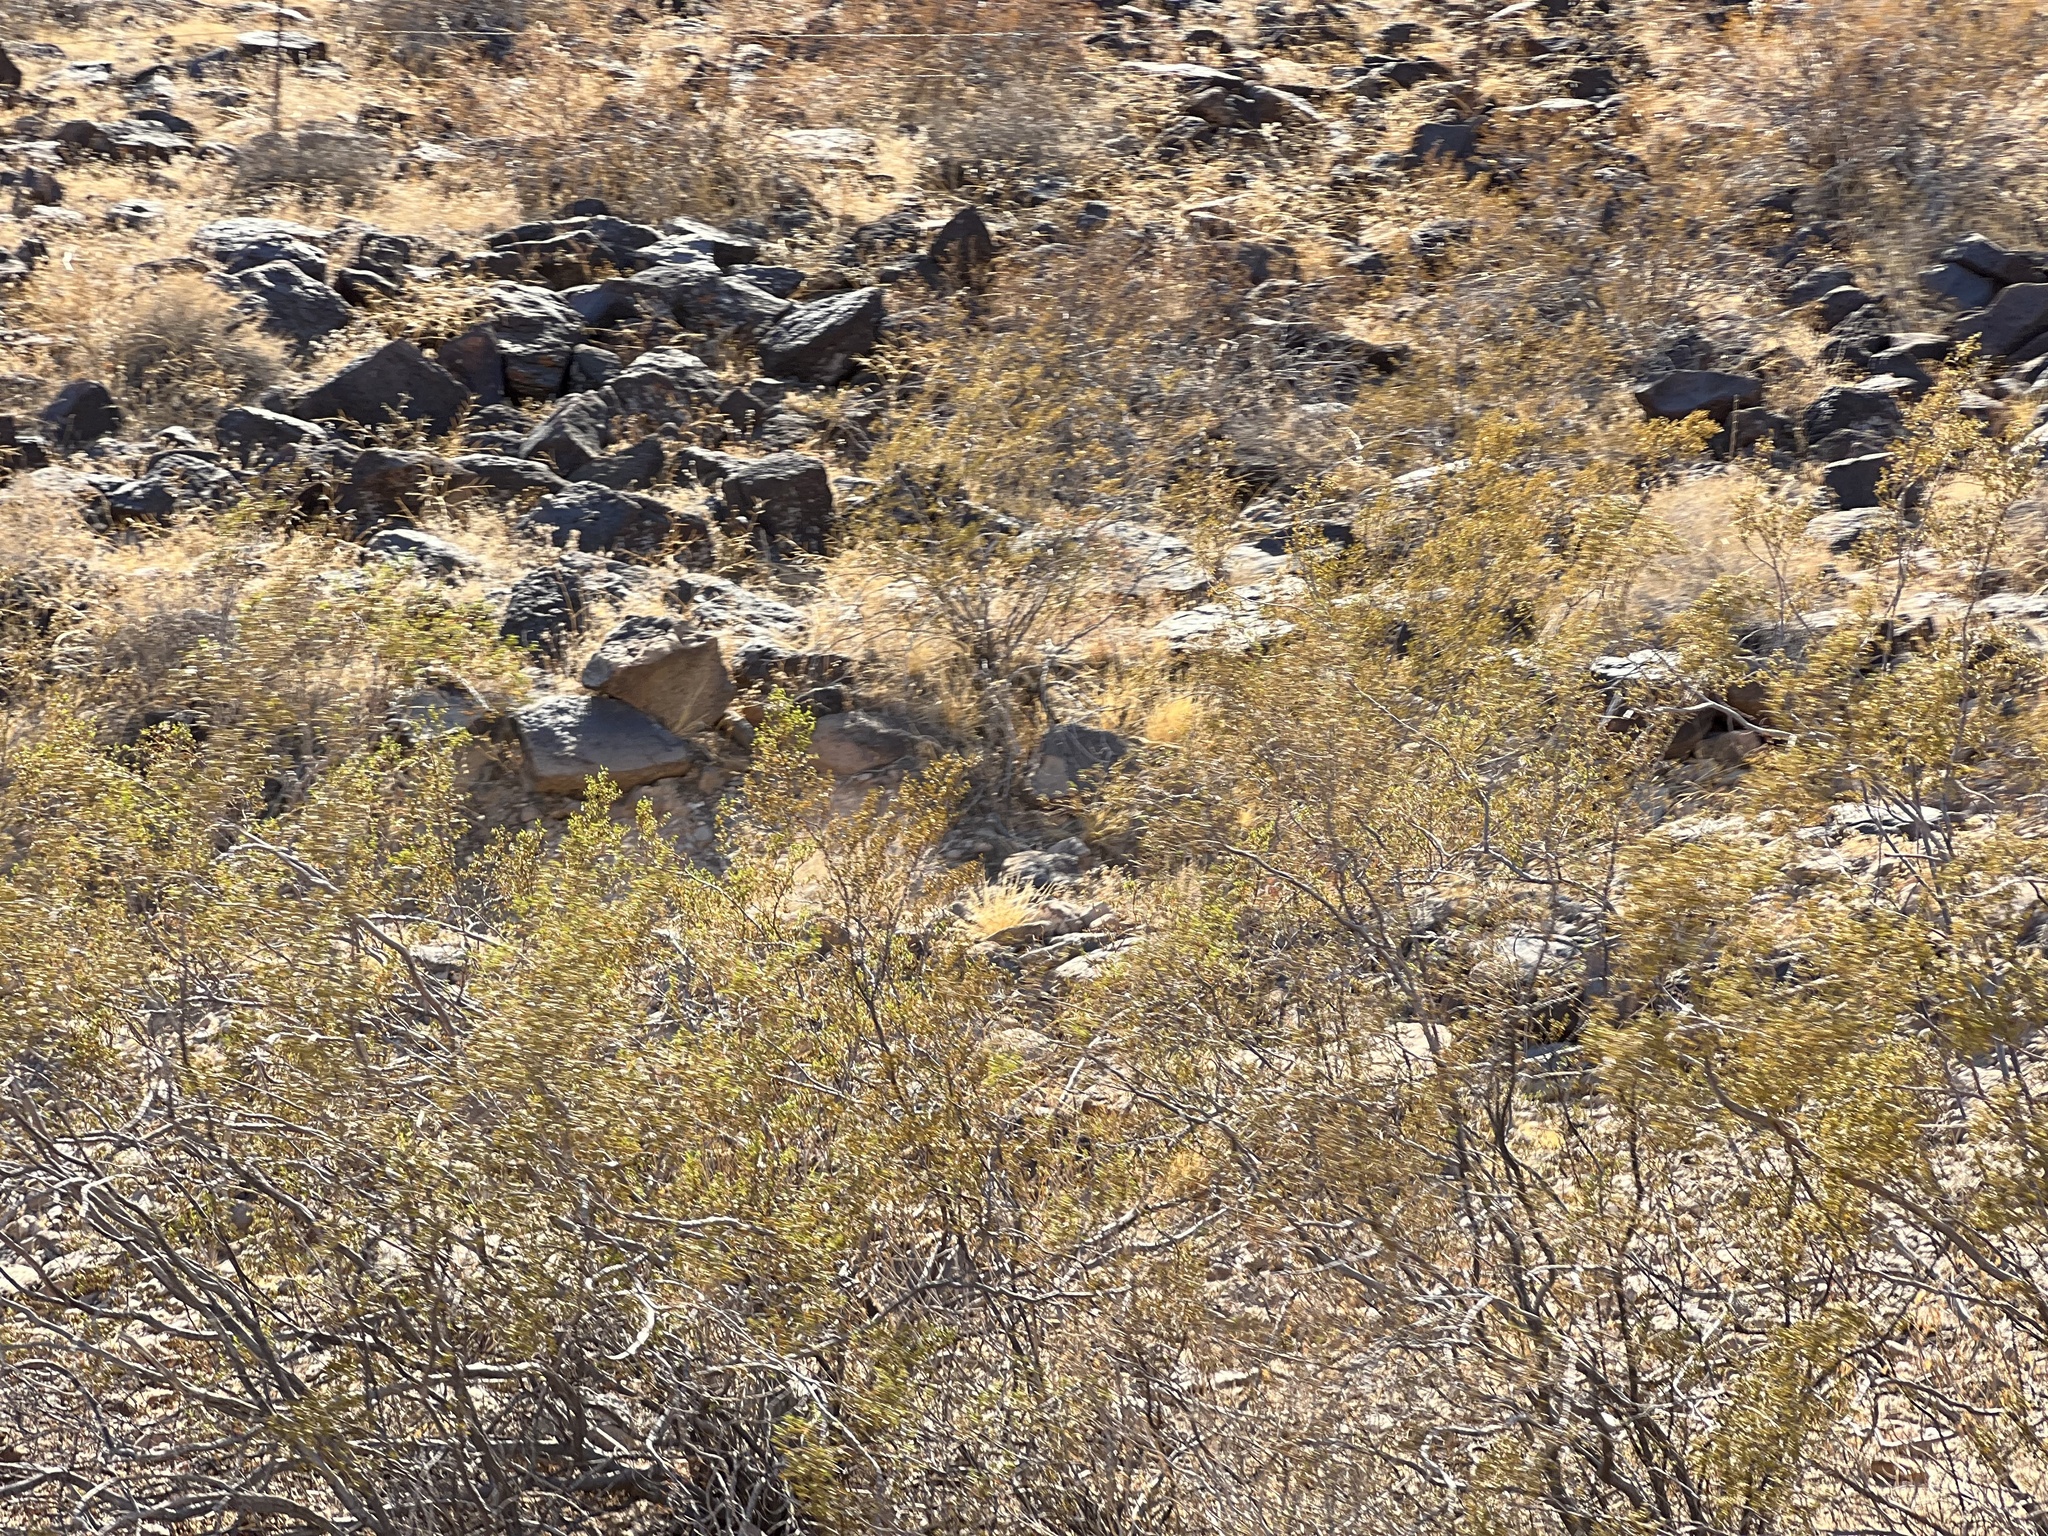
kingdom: Plantae
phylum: Tracheophyta
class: Magnoliopsida
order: Zygophyllales
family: Zygophyllaceae
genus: Larrea
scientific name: Larrea tridentata
